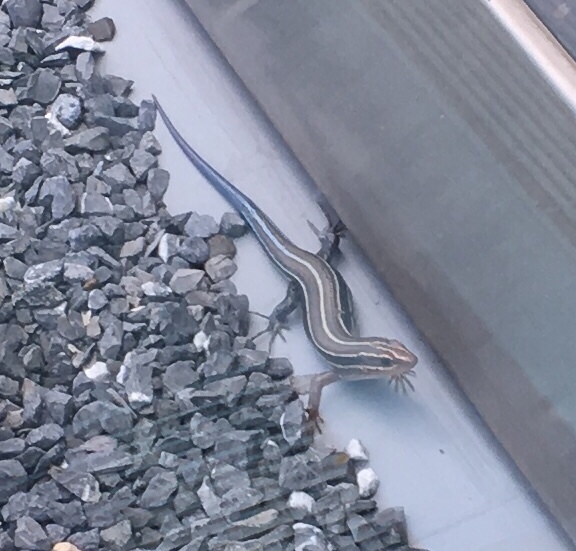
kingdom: Animalia
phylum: Chordata
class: Squamata
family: Scincidae
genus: Plestiodon
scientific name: Plestiodon laticeps
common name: Broadhead skink
